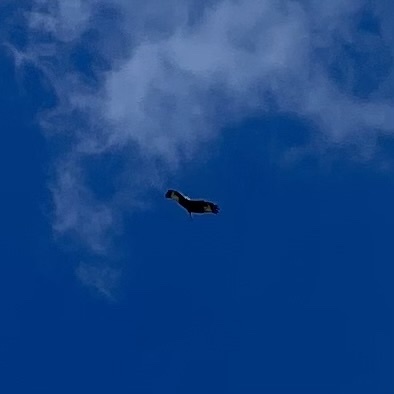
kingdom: Animalia
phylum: Chordata
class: Aves
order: Accipitriformes
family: Accipitridae
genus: Milvus
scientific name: Milvus milvus
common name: Red kite
